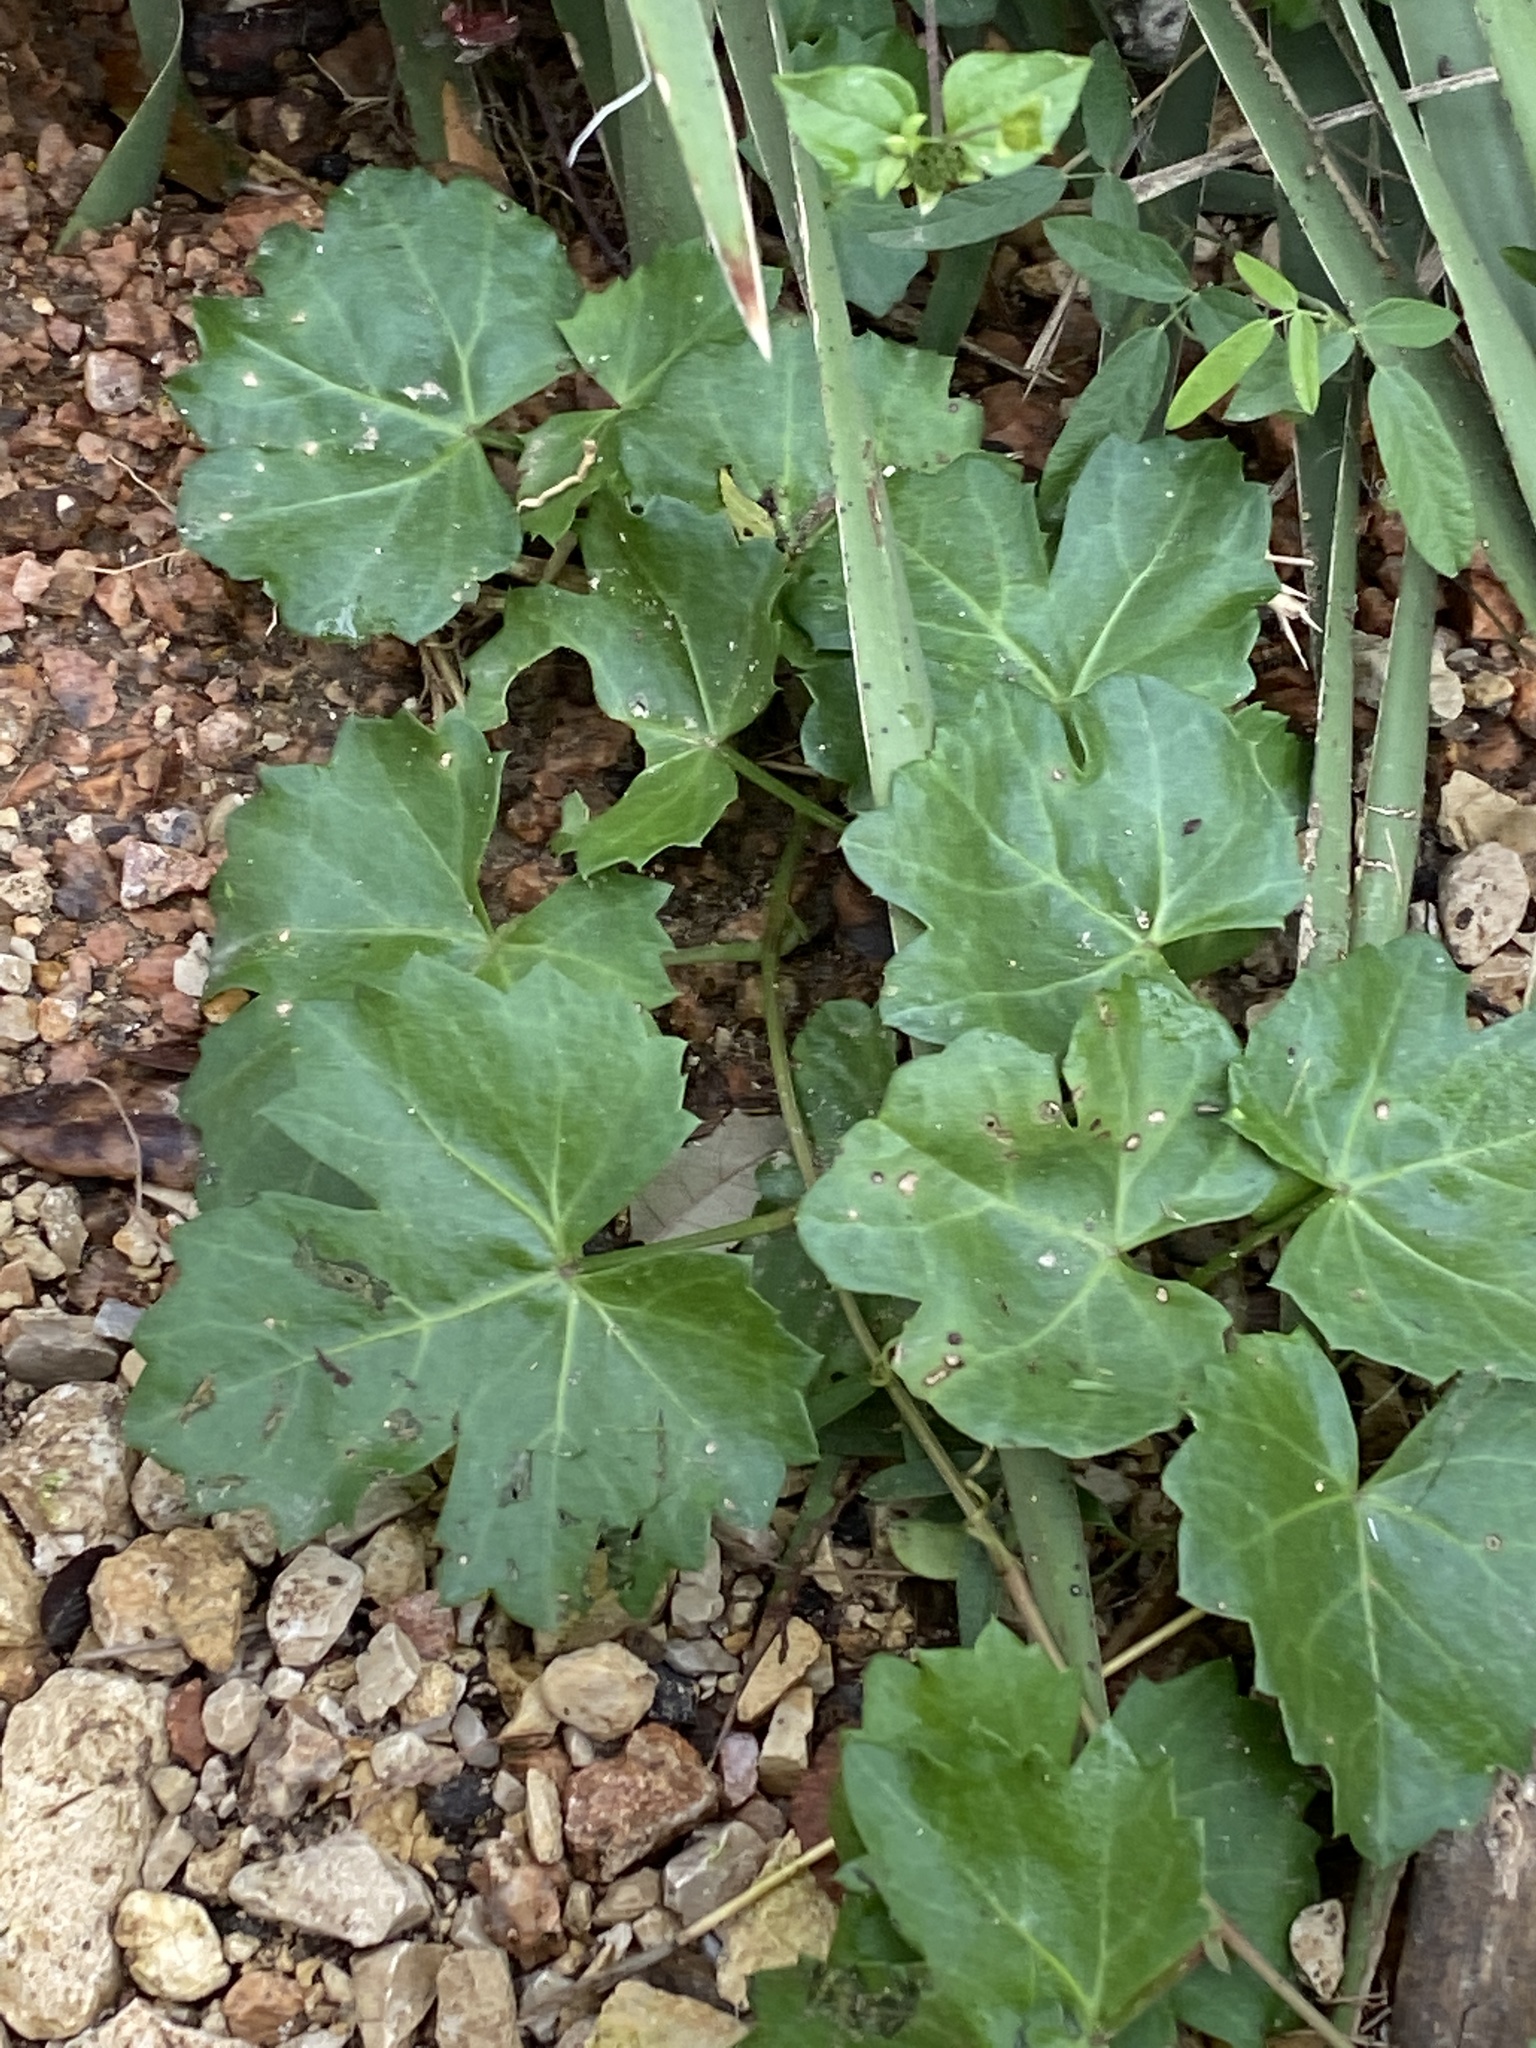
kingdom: Plantae
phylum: Tracheophyta
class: Magnoliopsida
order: Vitales
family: Vitaceae
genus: Cissus
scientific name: Cissus trifoliata
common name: Vine-sorrel
